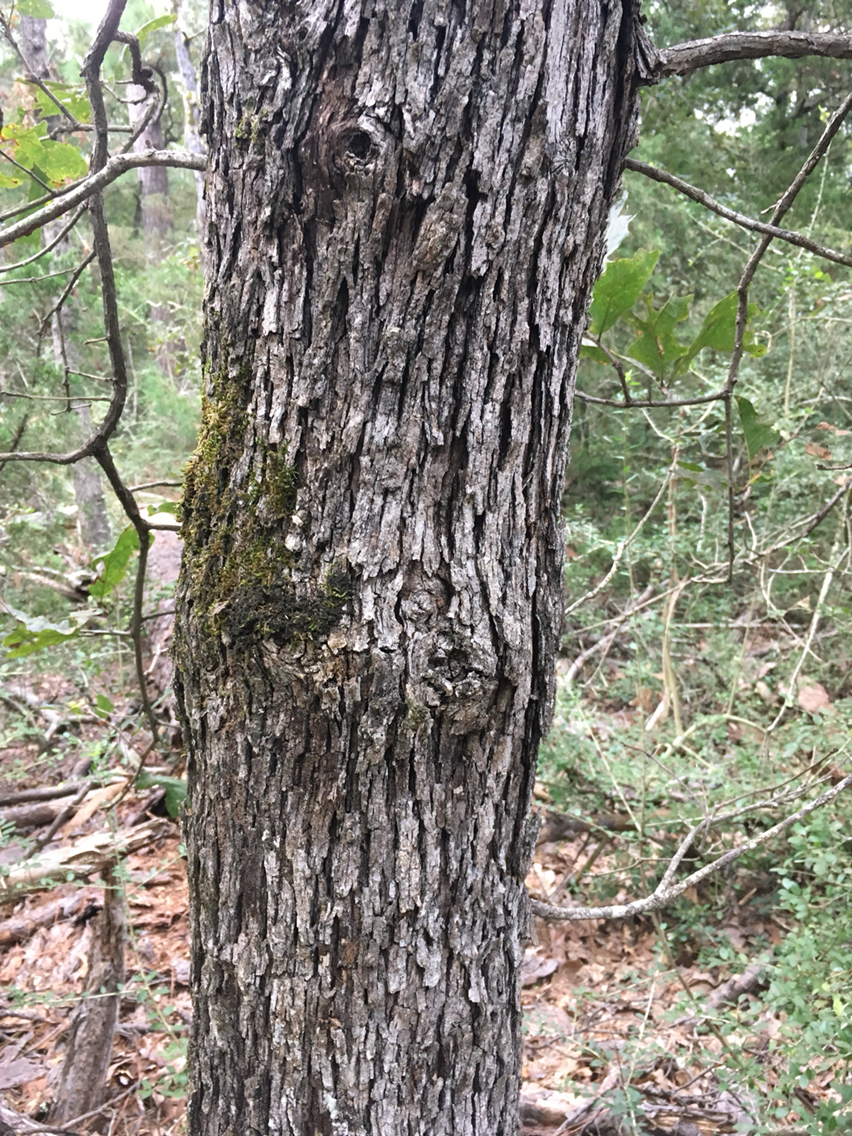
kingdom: Plantae
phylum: Tracheophyta
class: Magnoliopsida
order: Fagales
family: Fagaceae
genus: Quercus
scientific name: Quercus stellata
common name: Post oak
